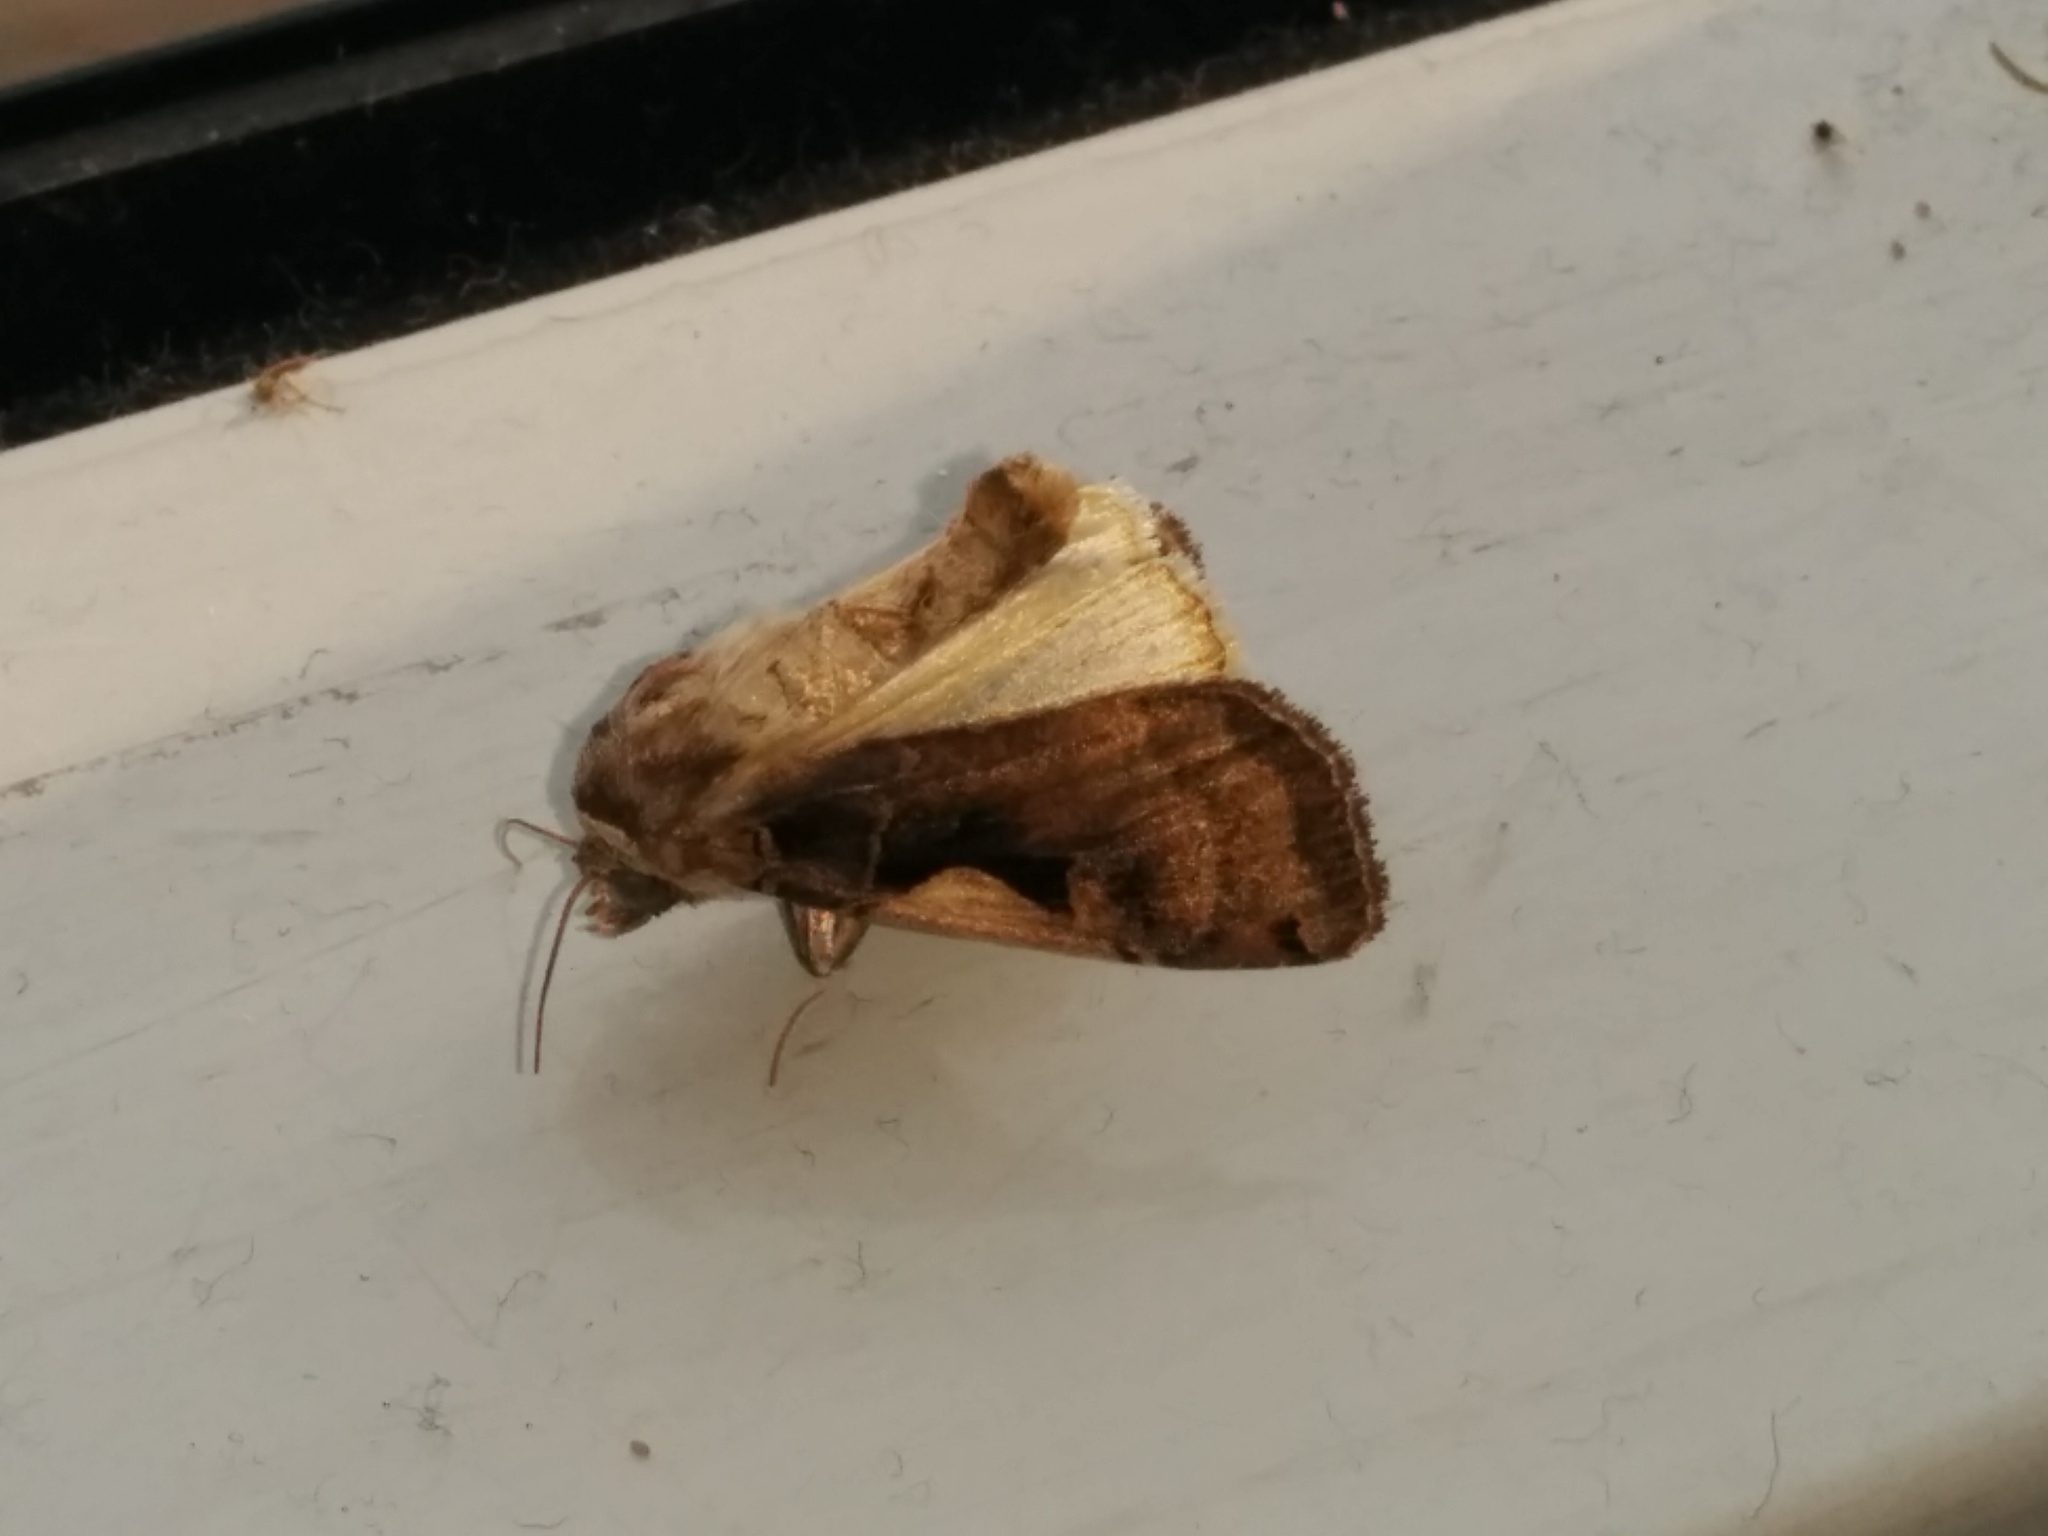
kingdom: Animalia
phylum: Arthropoda
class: Insecta
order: Lepidoptera
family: Noctuidae
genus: Xestia
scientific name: Xestia c-nigrum
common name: Setaceous hebrew character
